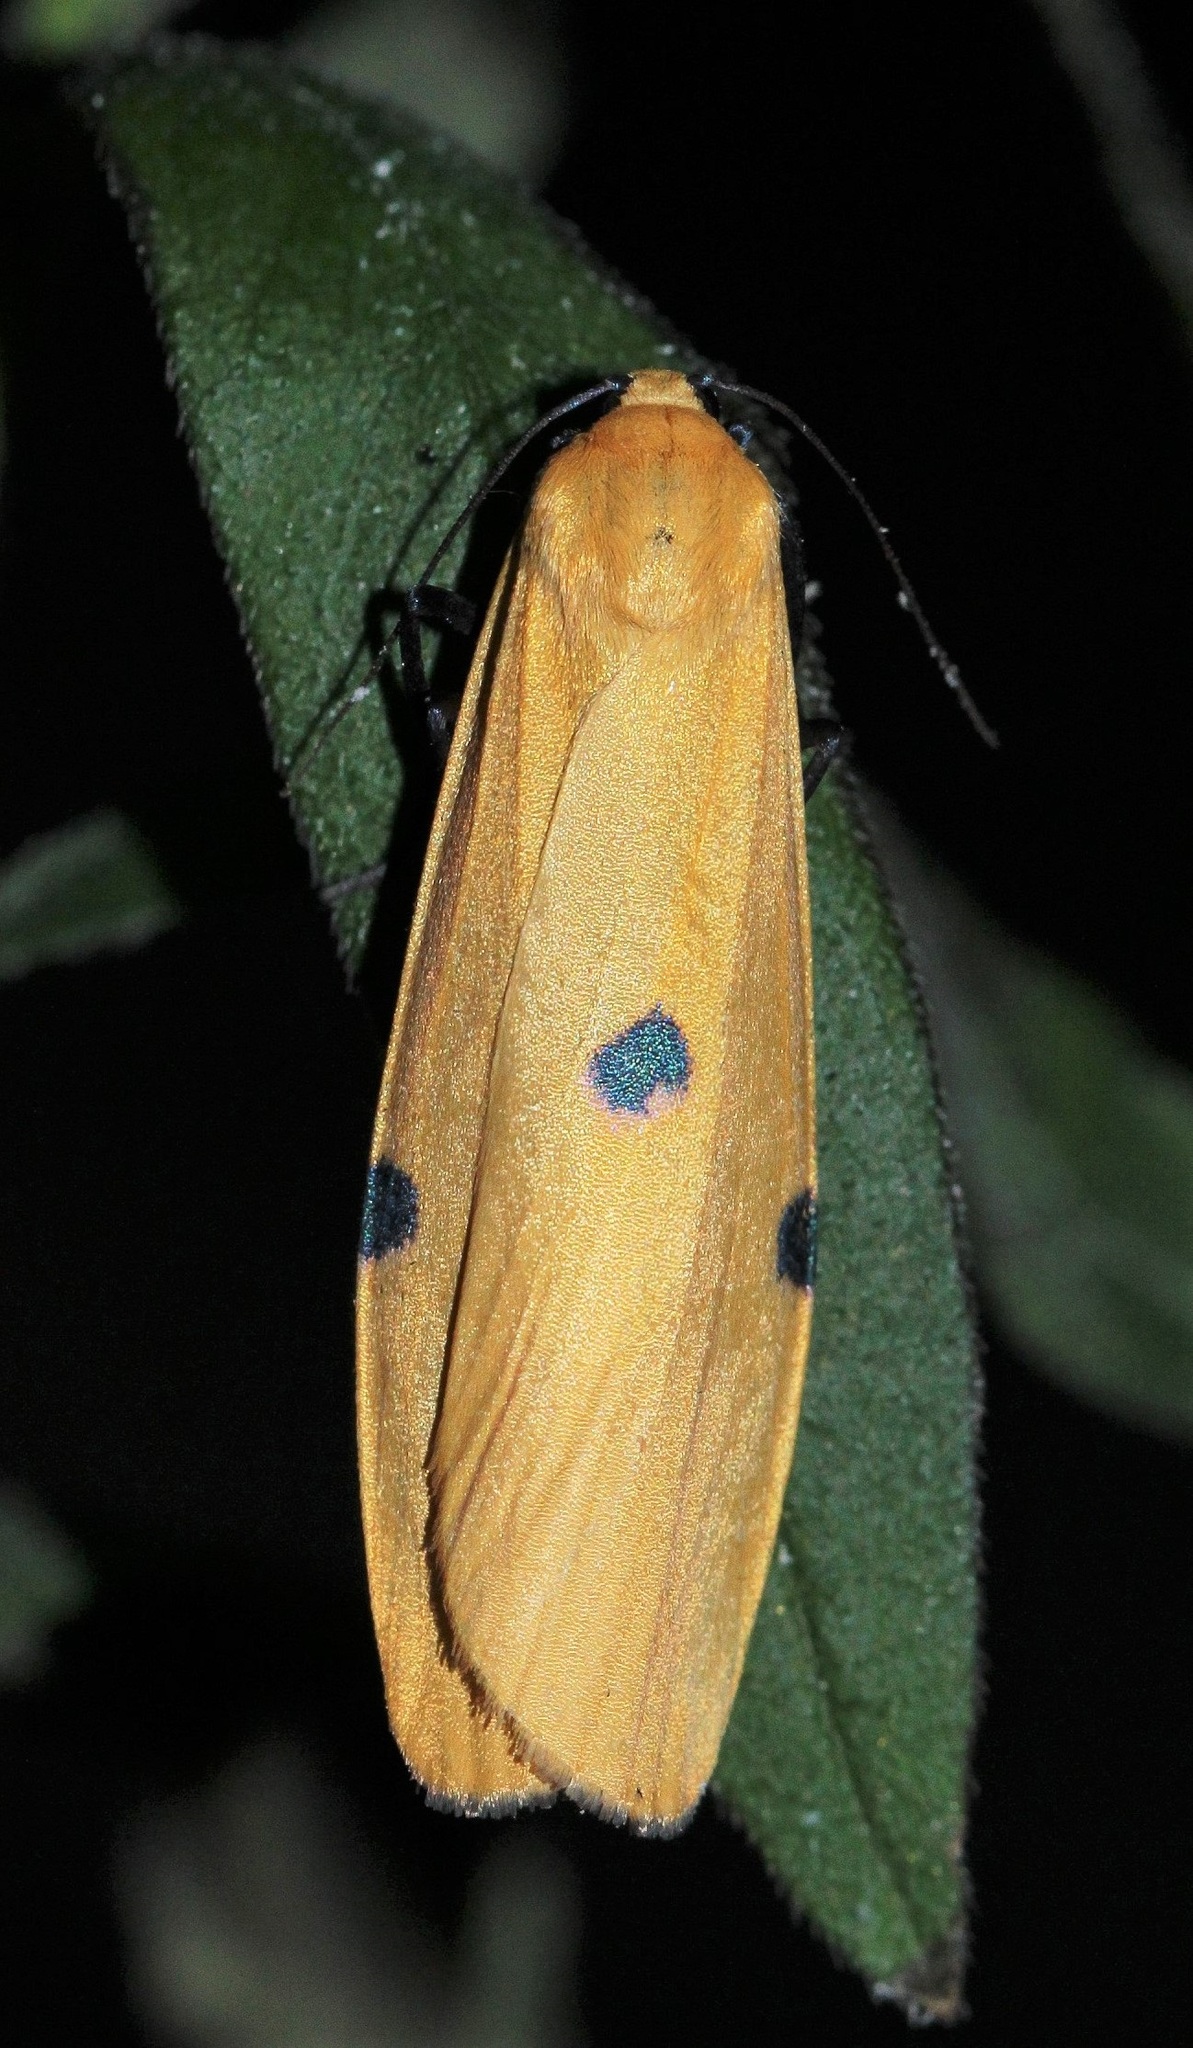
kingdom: Animalia
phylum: Arthropoda
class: Insecta
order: Lepidoptera
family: Erebidae
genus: Lithosia
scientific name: Lithosia quadra
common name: Four-spotted footman
